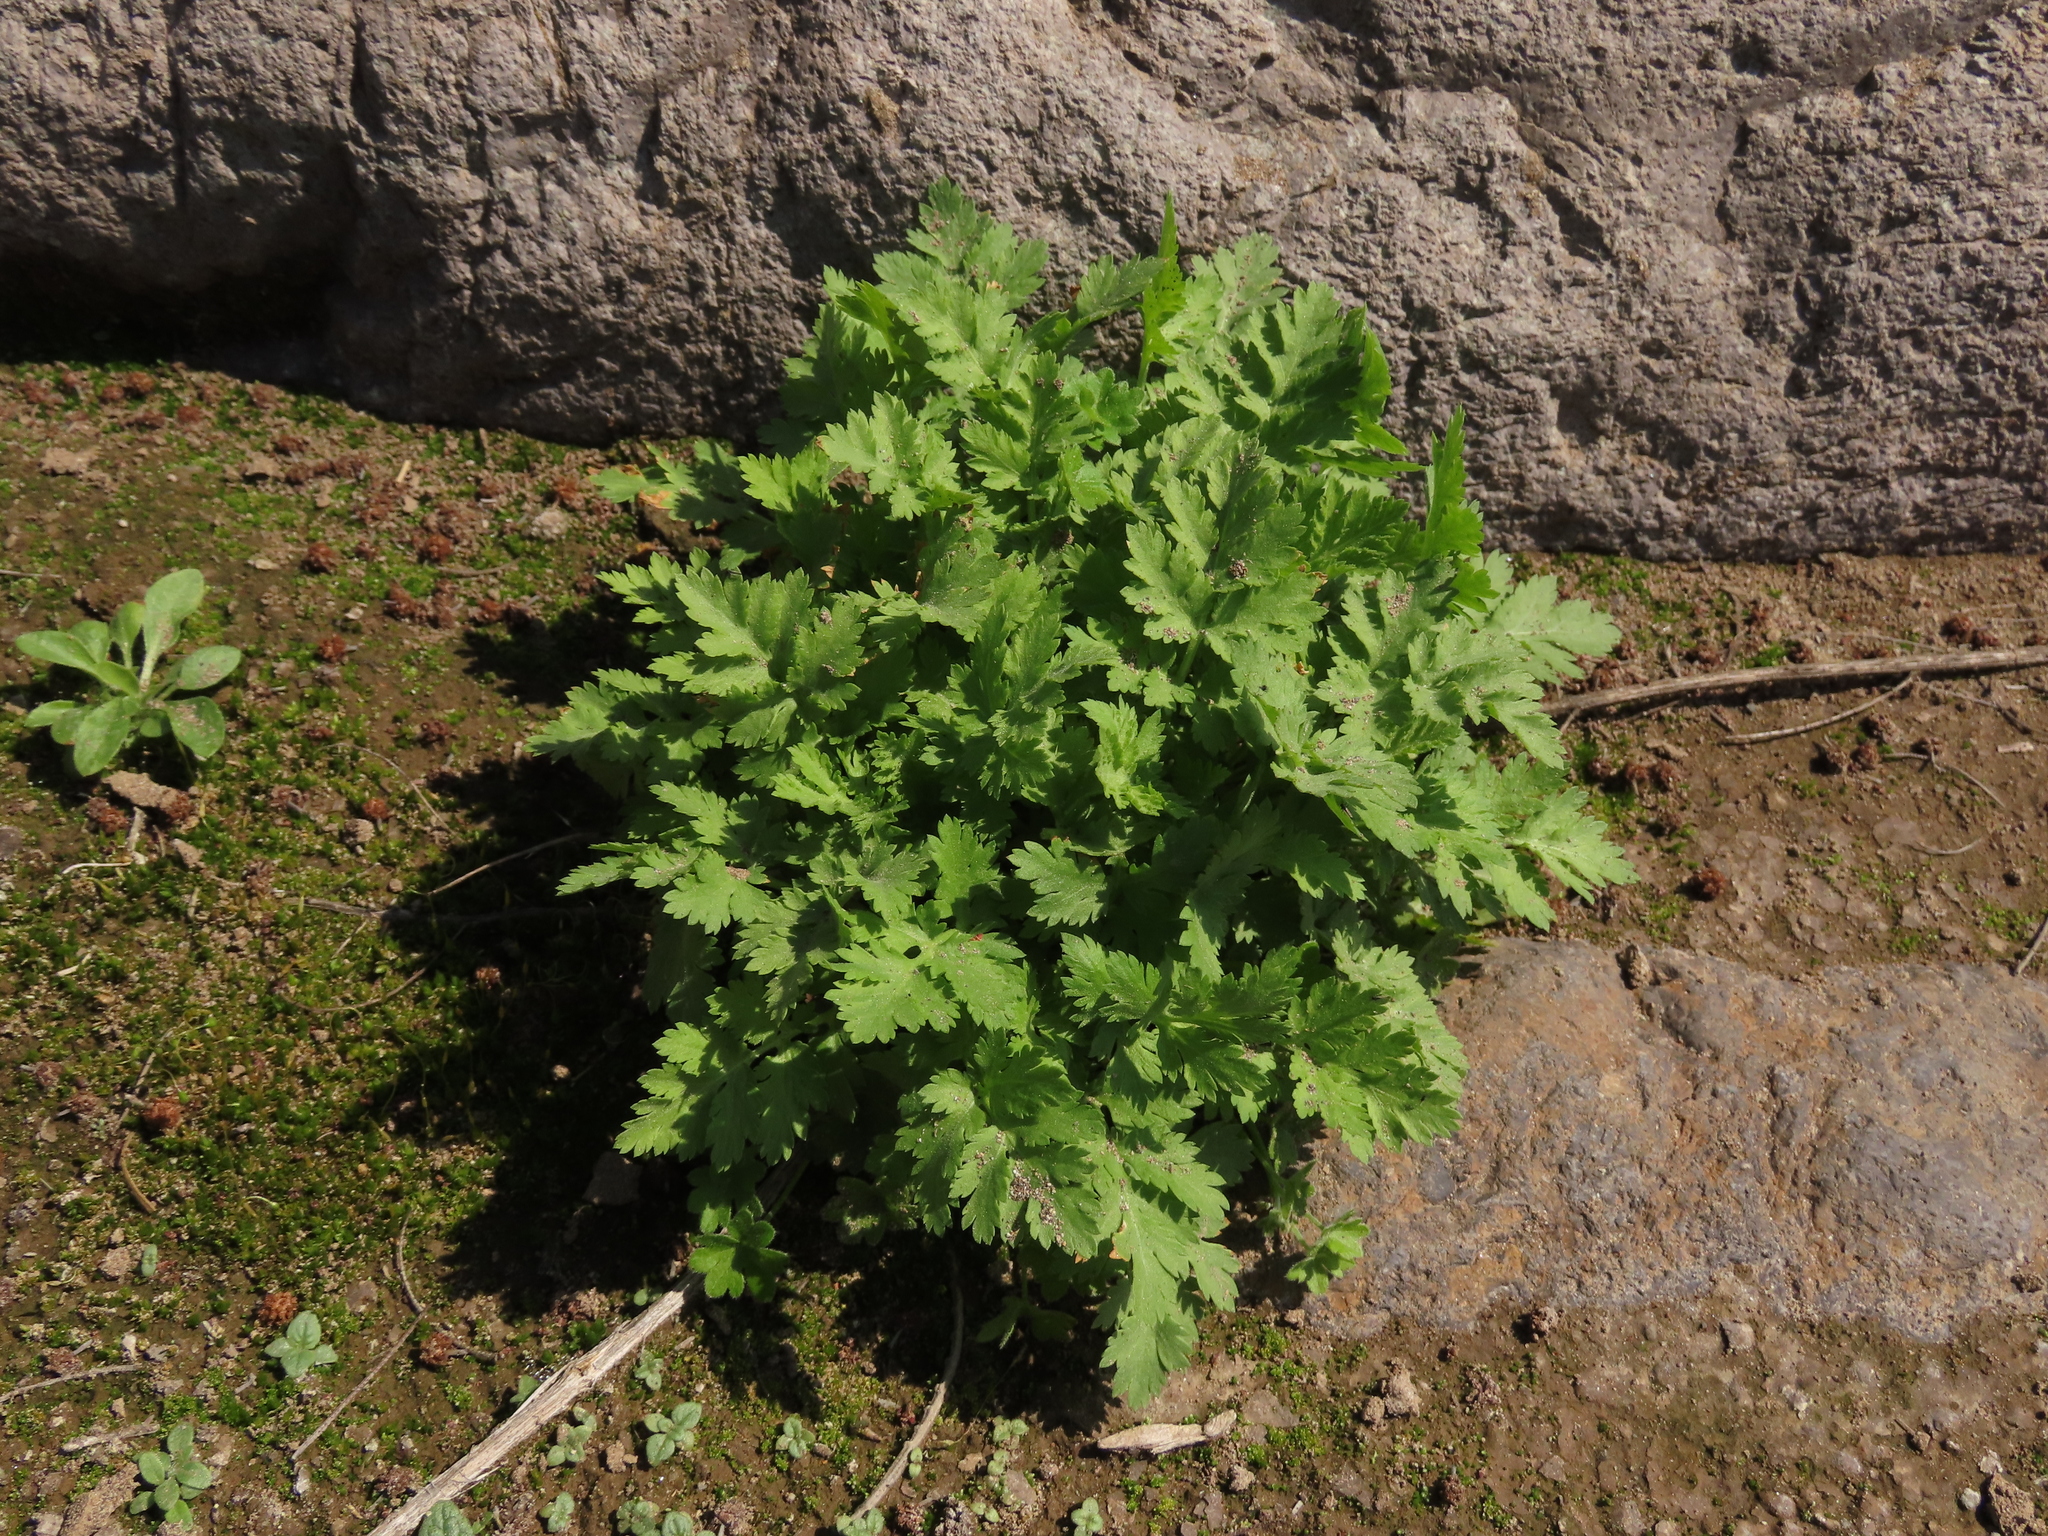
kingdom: Plantae
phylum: Tracheophyta
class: Magnoliopsida
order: Asterales
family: Asteraceae
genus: Tanacetum
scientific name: Tanacetum parthenium
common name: Feverfew
